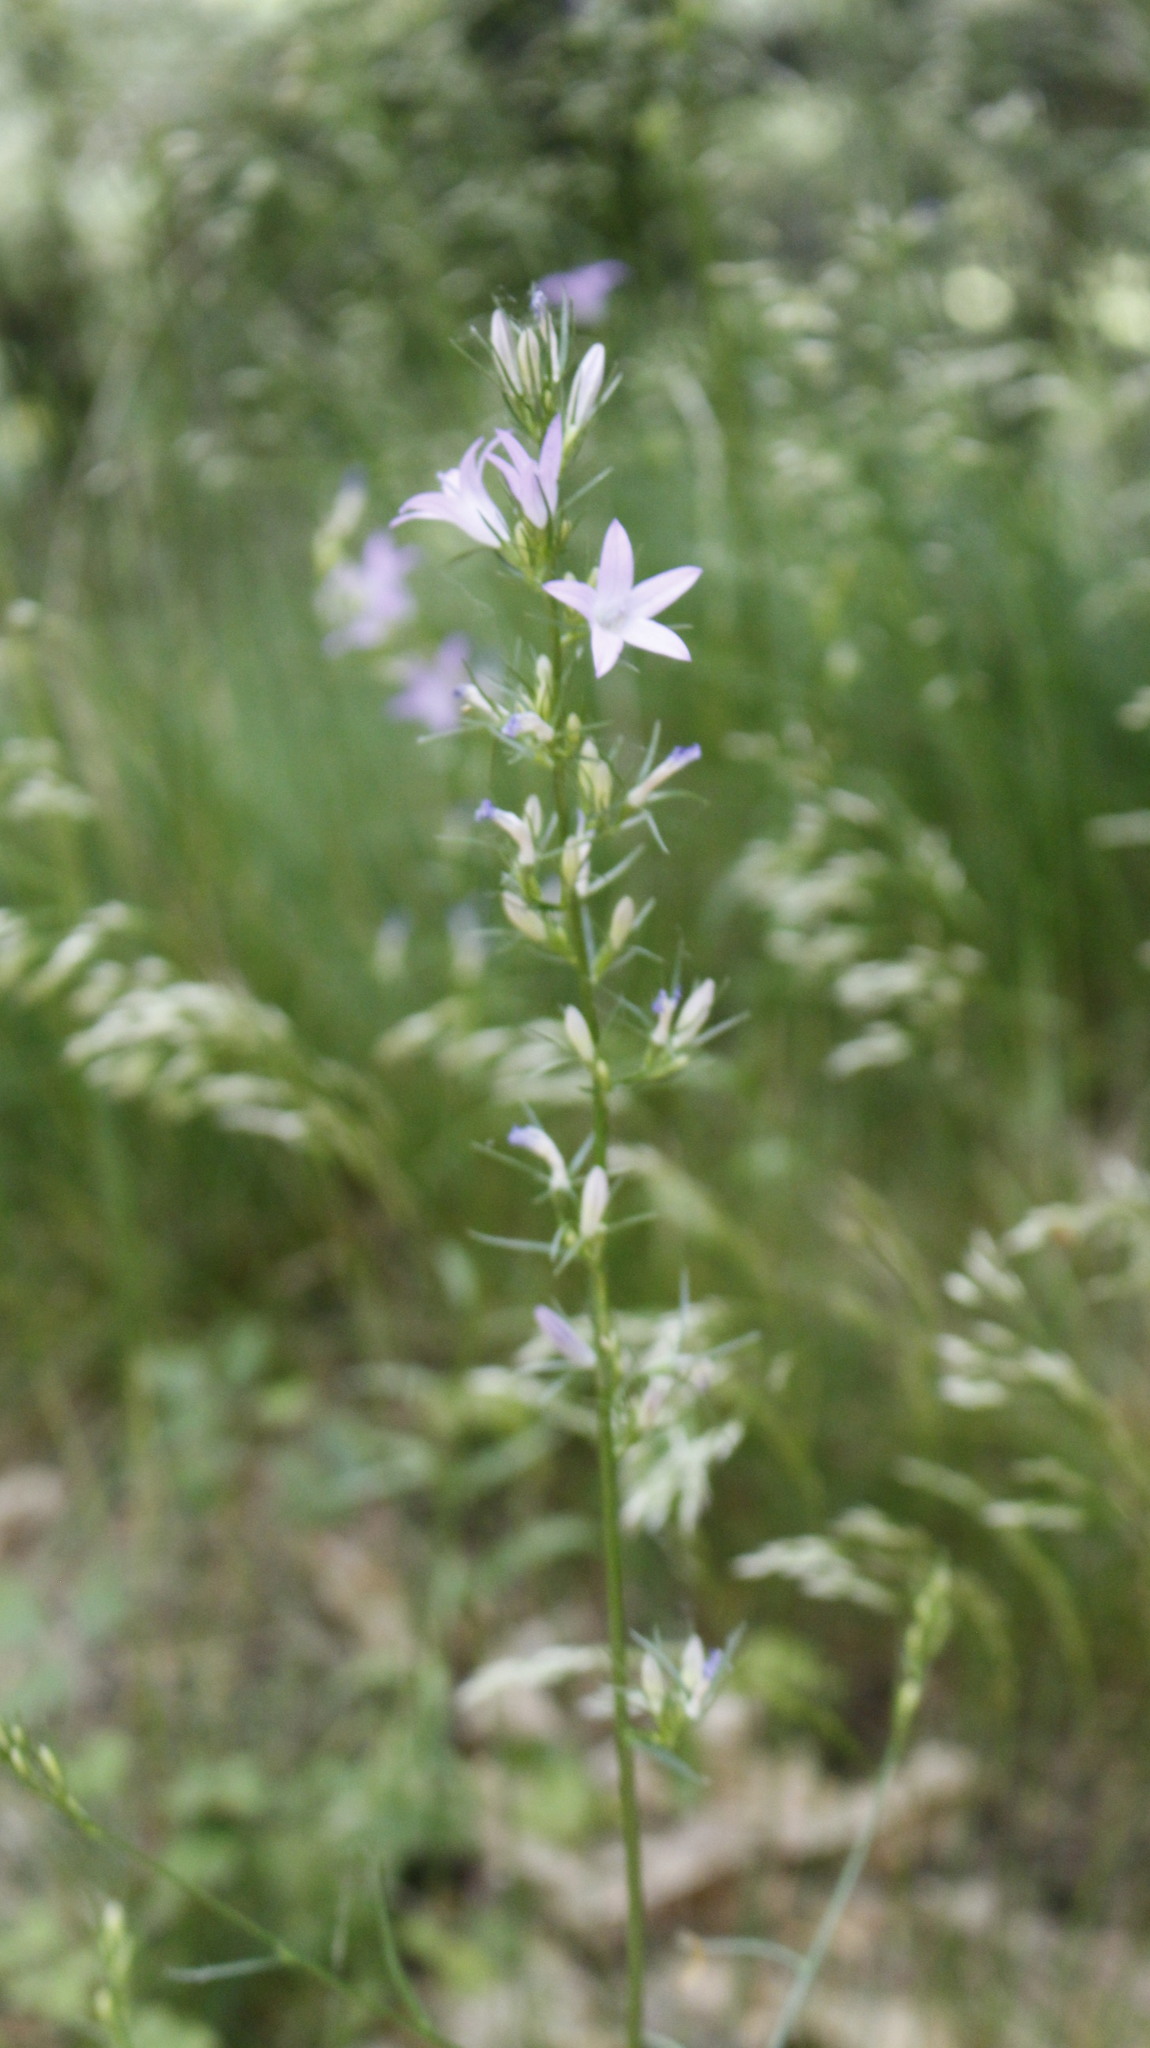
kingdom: Plantae
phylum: Tracheophyta
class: Magnoliopsida
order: Asterales
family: Campanulaceae
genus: Campanula
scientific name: Campanula rapunculus
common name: Rampion bellflower
